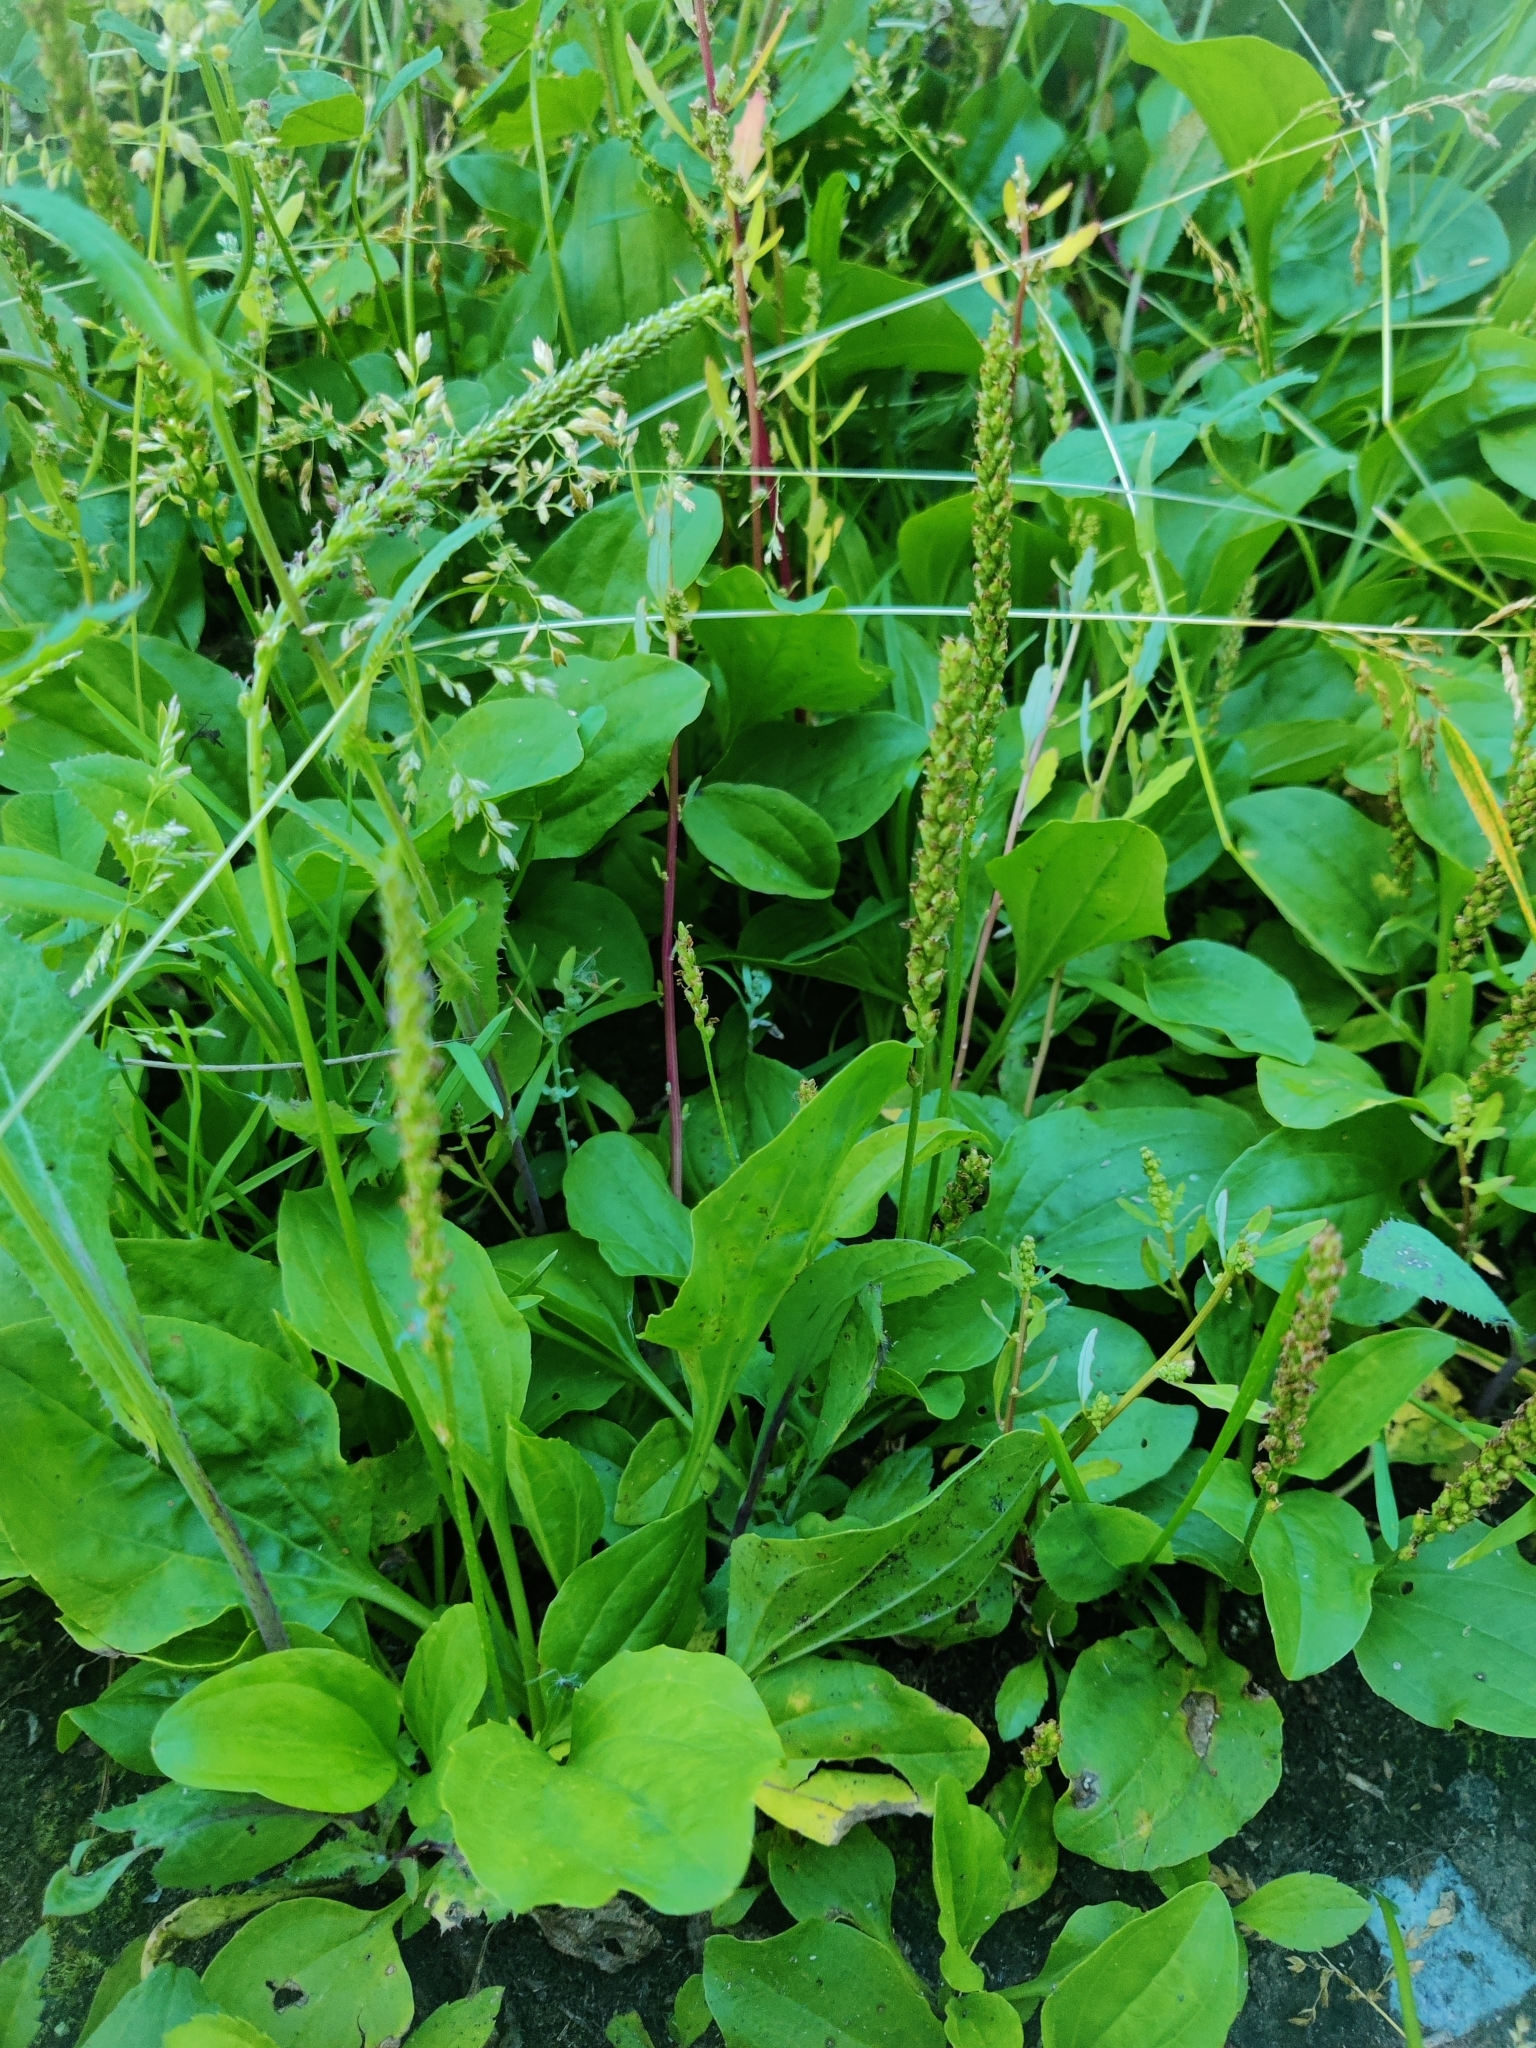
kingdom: Plantae
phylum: Tracheophyta
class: Magnoliopsida
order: Lamiales
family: Plantaginaceae
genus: Plantago
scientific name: Plantago major
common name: Common plantain
